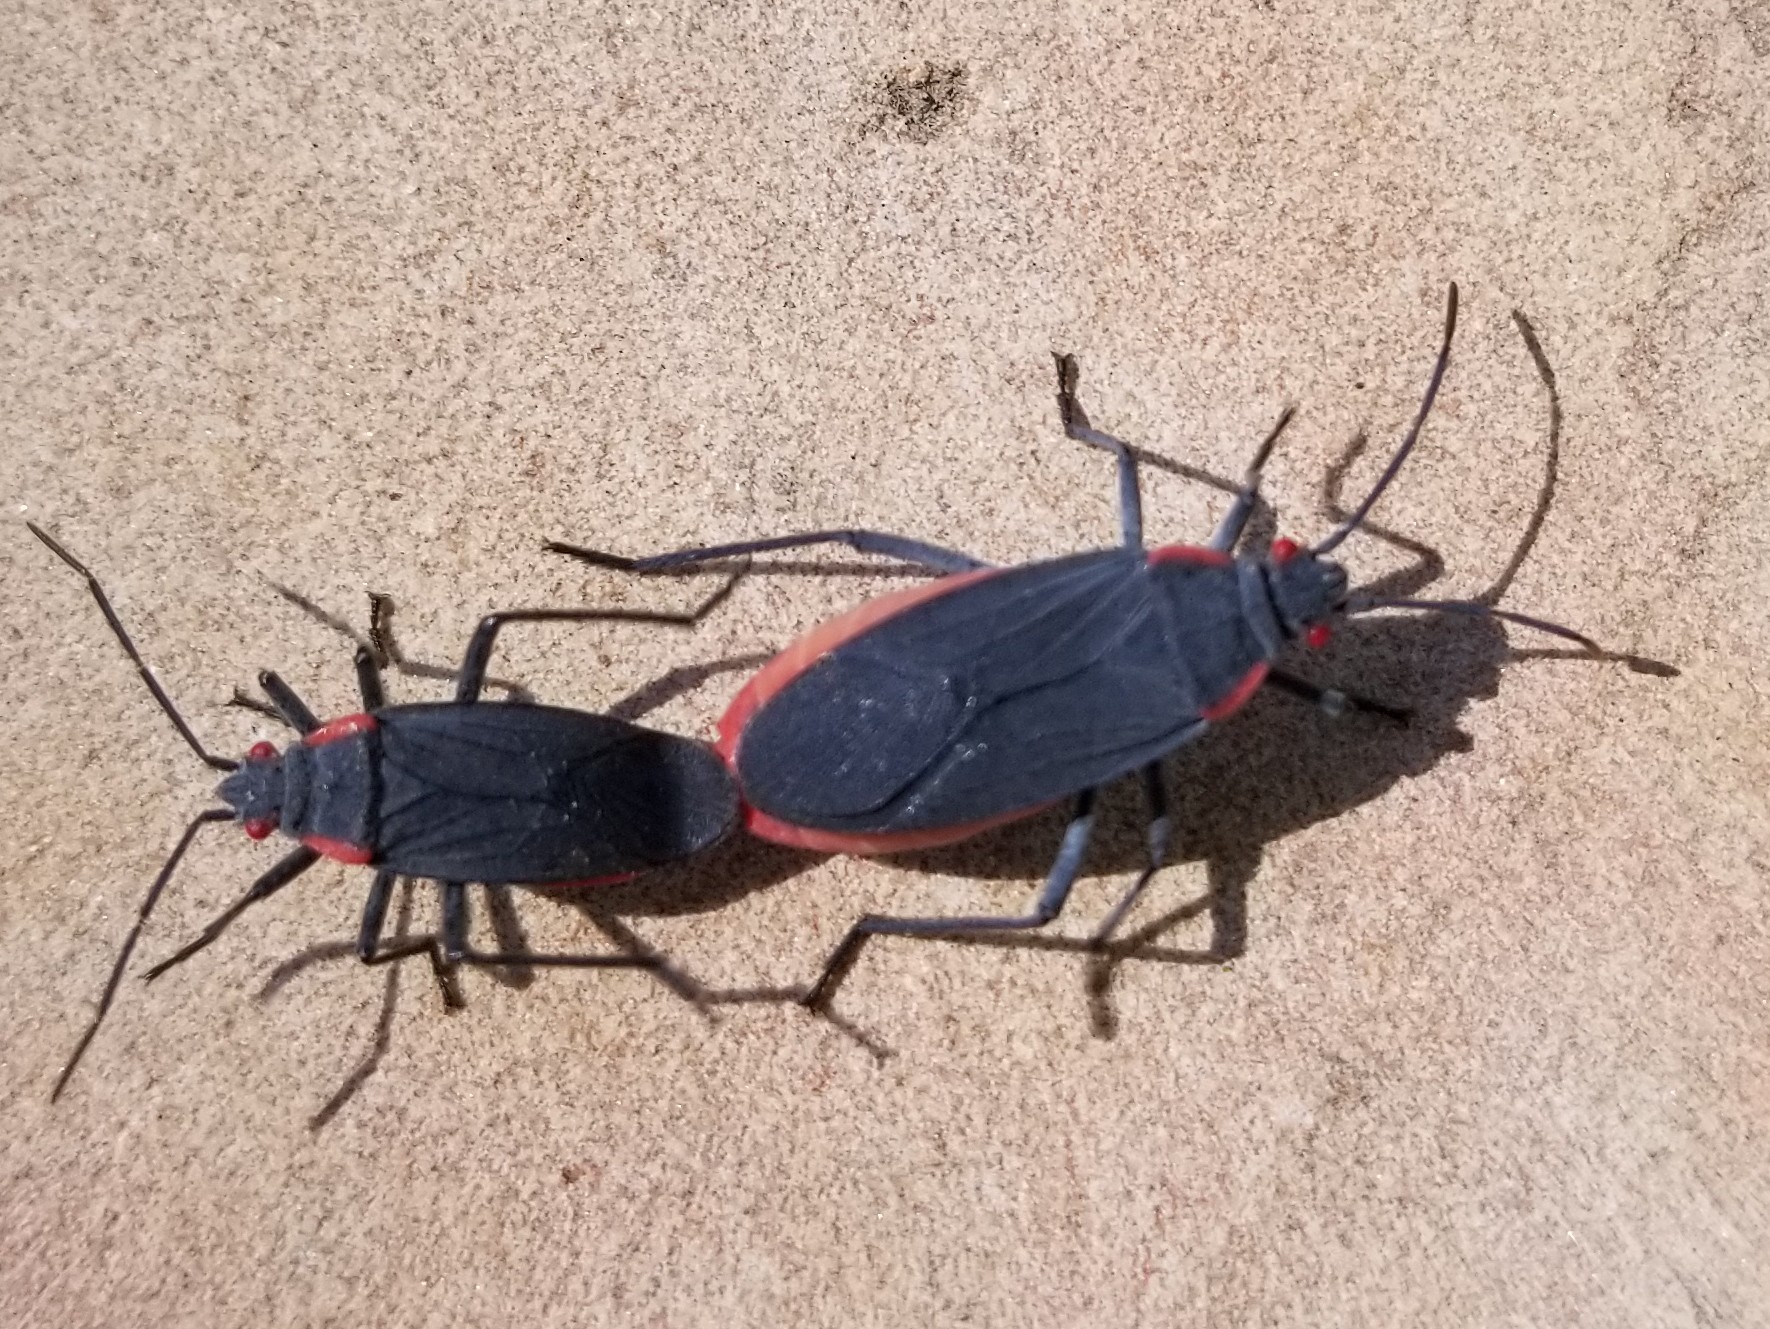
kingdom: Animalia
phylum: Arthropoda
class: Insecta
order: Hemiptera
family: Rhopalidae
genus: Jadera
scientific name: Jadera haematoloma
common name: Red-shouldered bug
